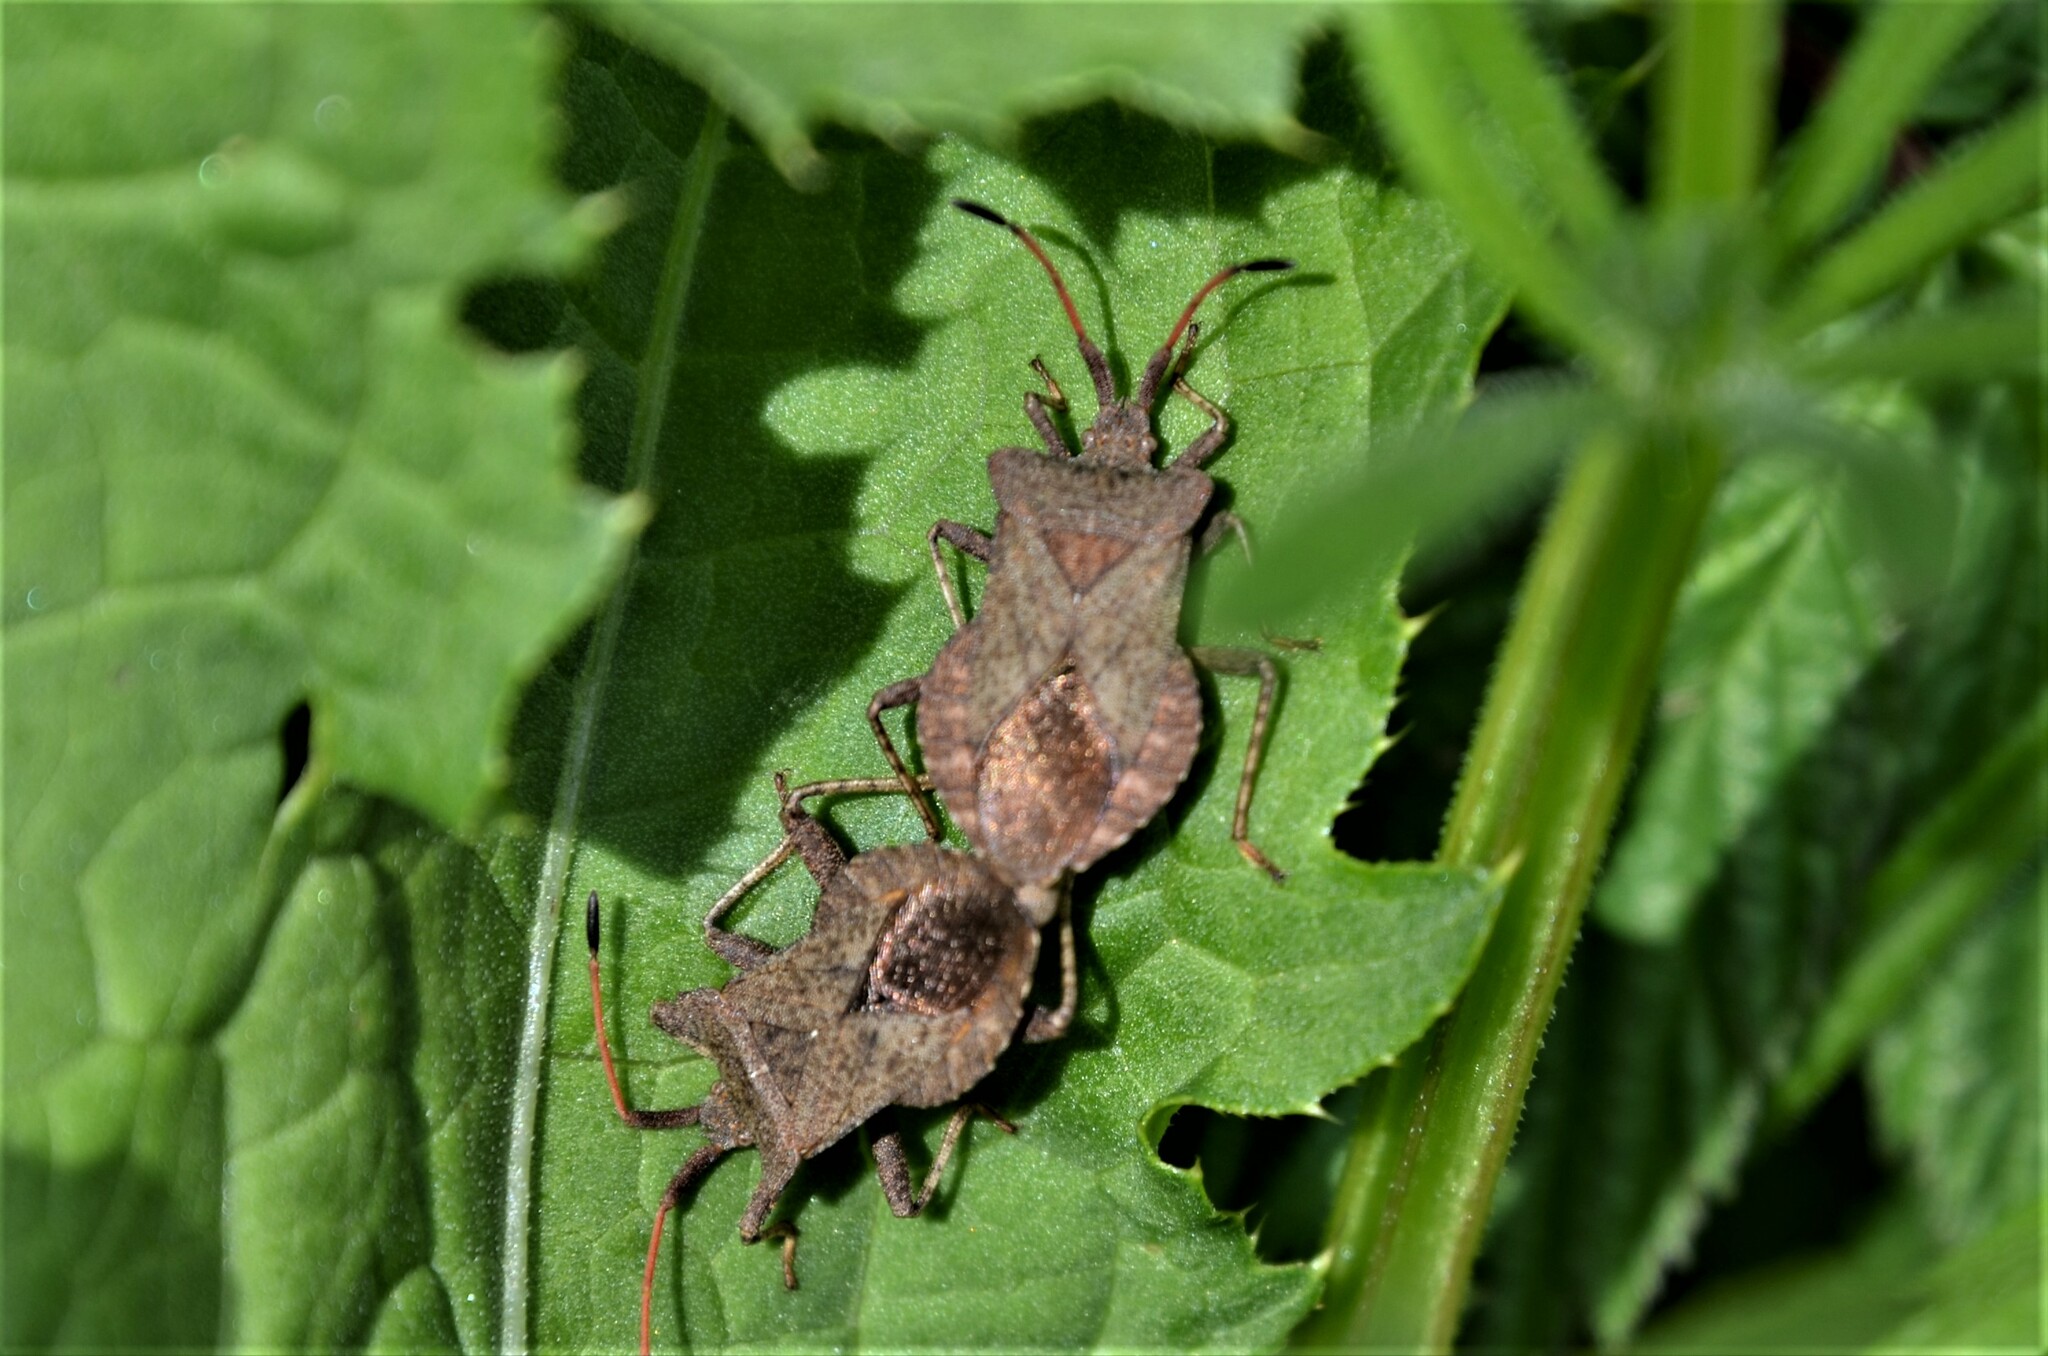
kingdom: Animalia
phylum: Arthropoda
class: Insecta
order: Hemiptera
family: Coreidae
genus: Coreus
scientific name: Coreus marginatus
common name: Dock bug
